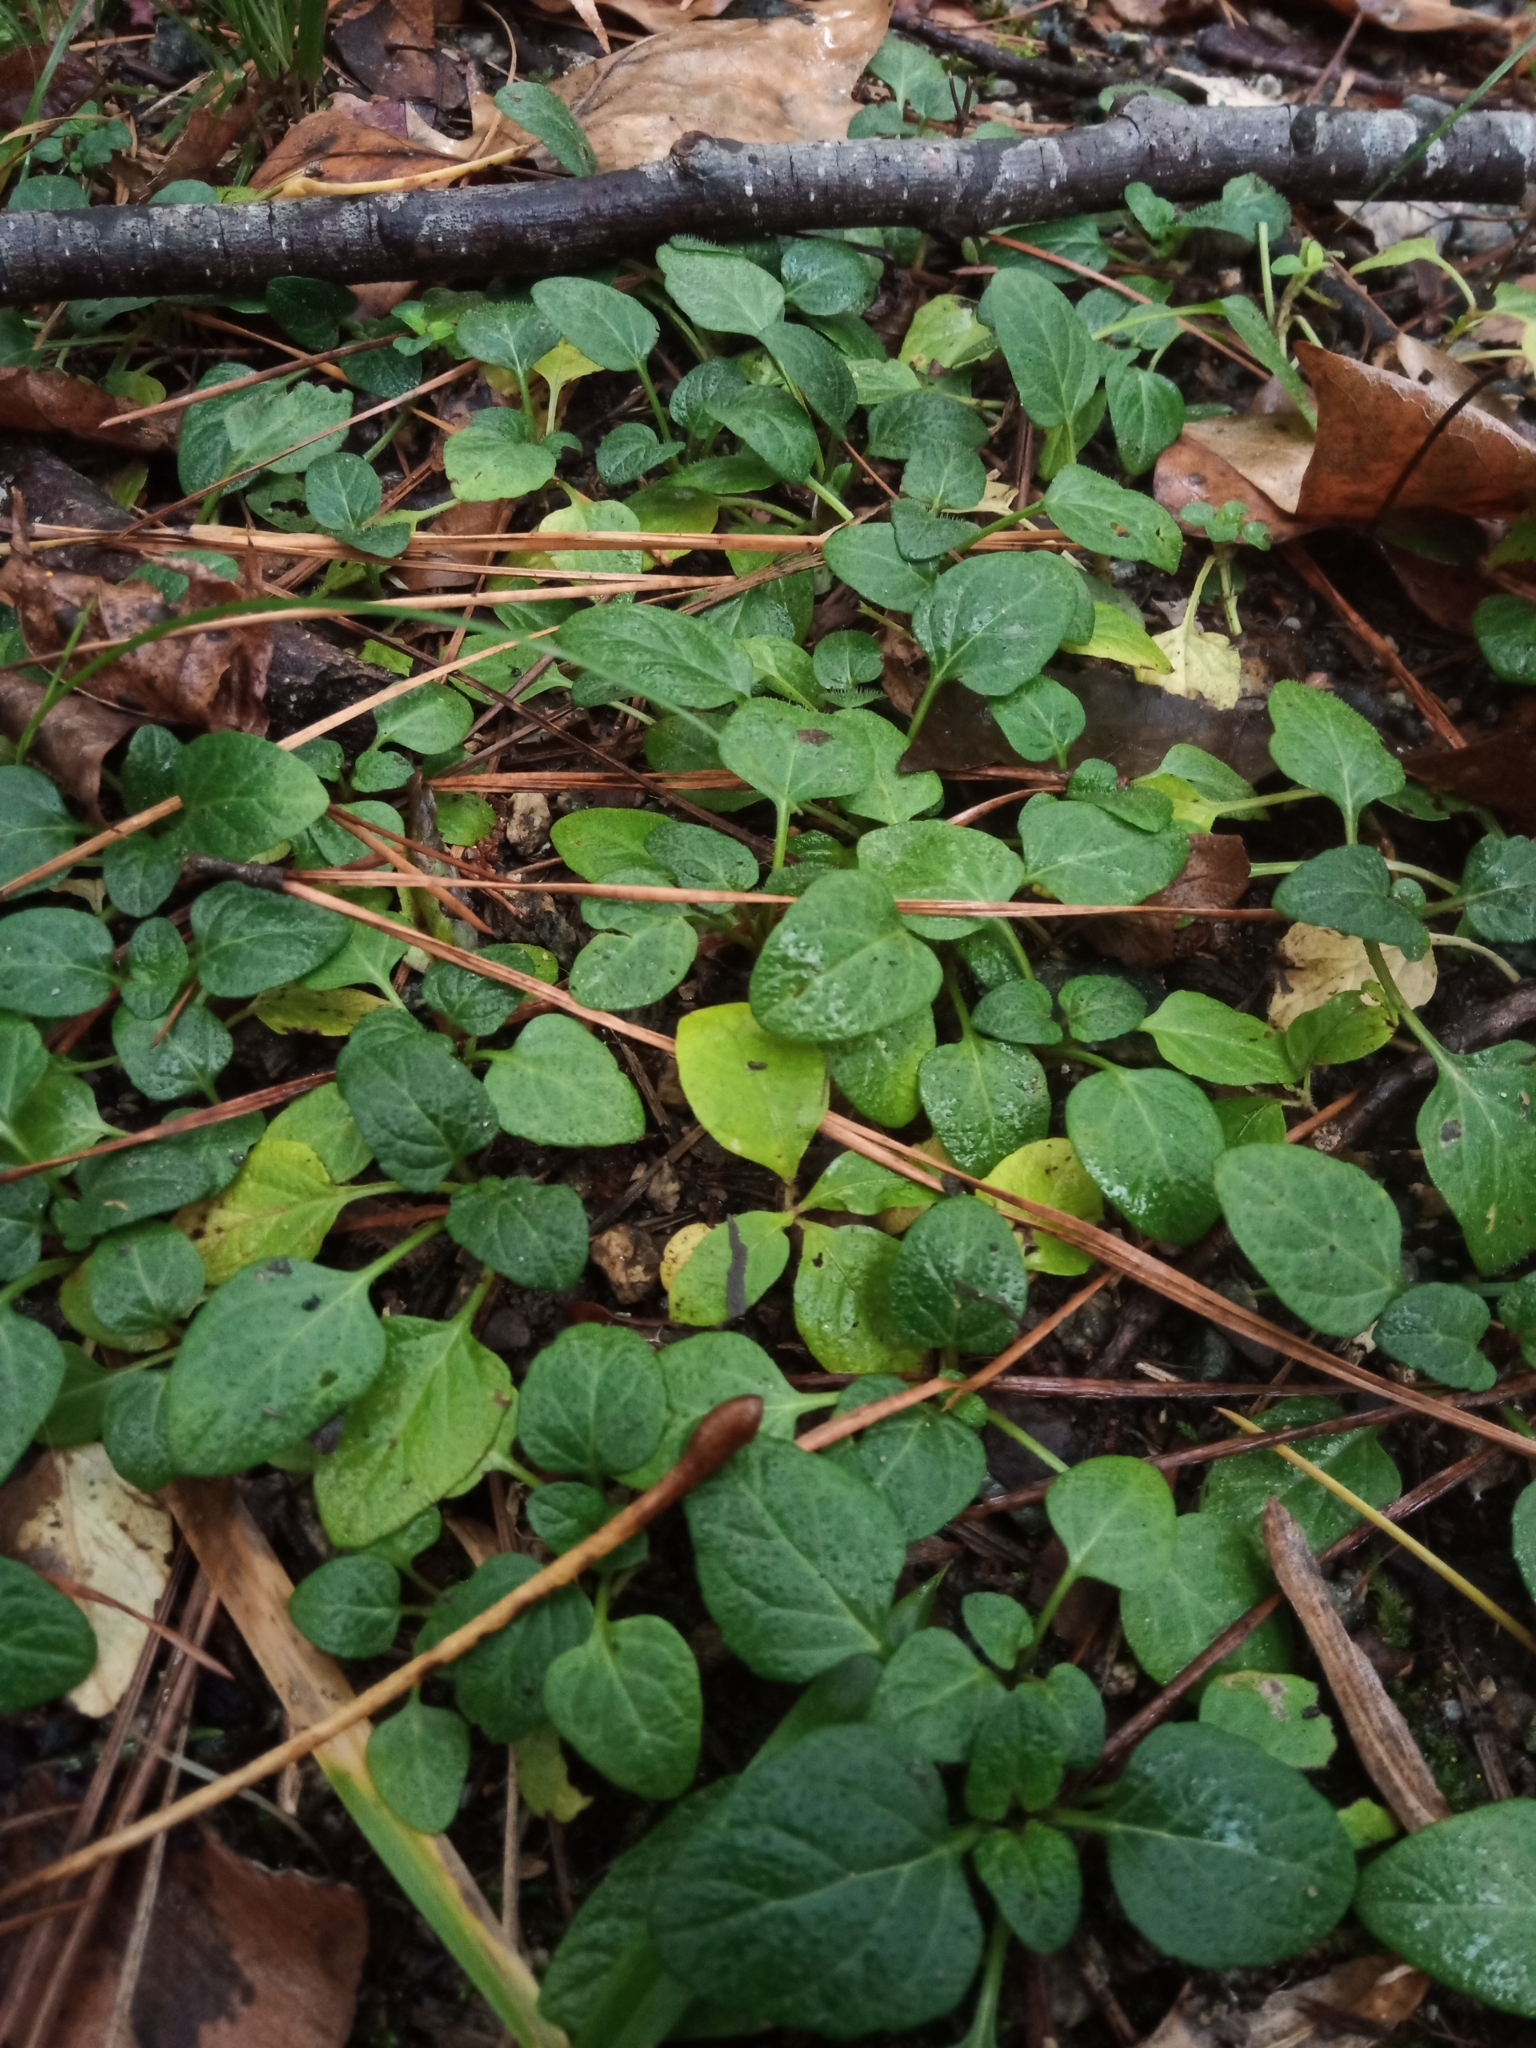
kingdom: Plantae
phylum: Tracheophyta
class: Magnoliopsida
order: Gentianales
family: Rubiaceae
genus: Mitchella
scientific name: Mitchella repens
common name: Partridge-berry
